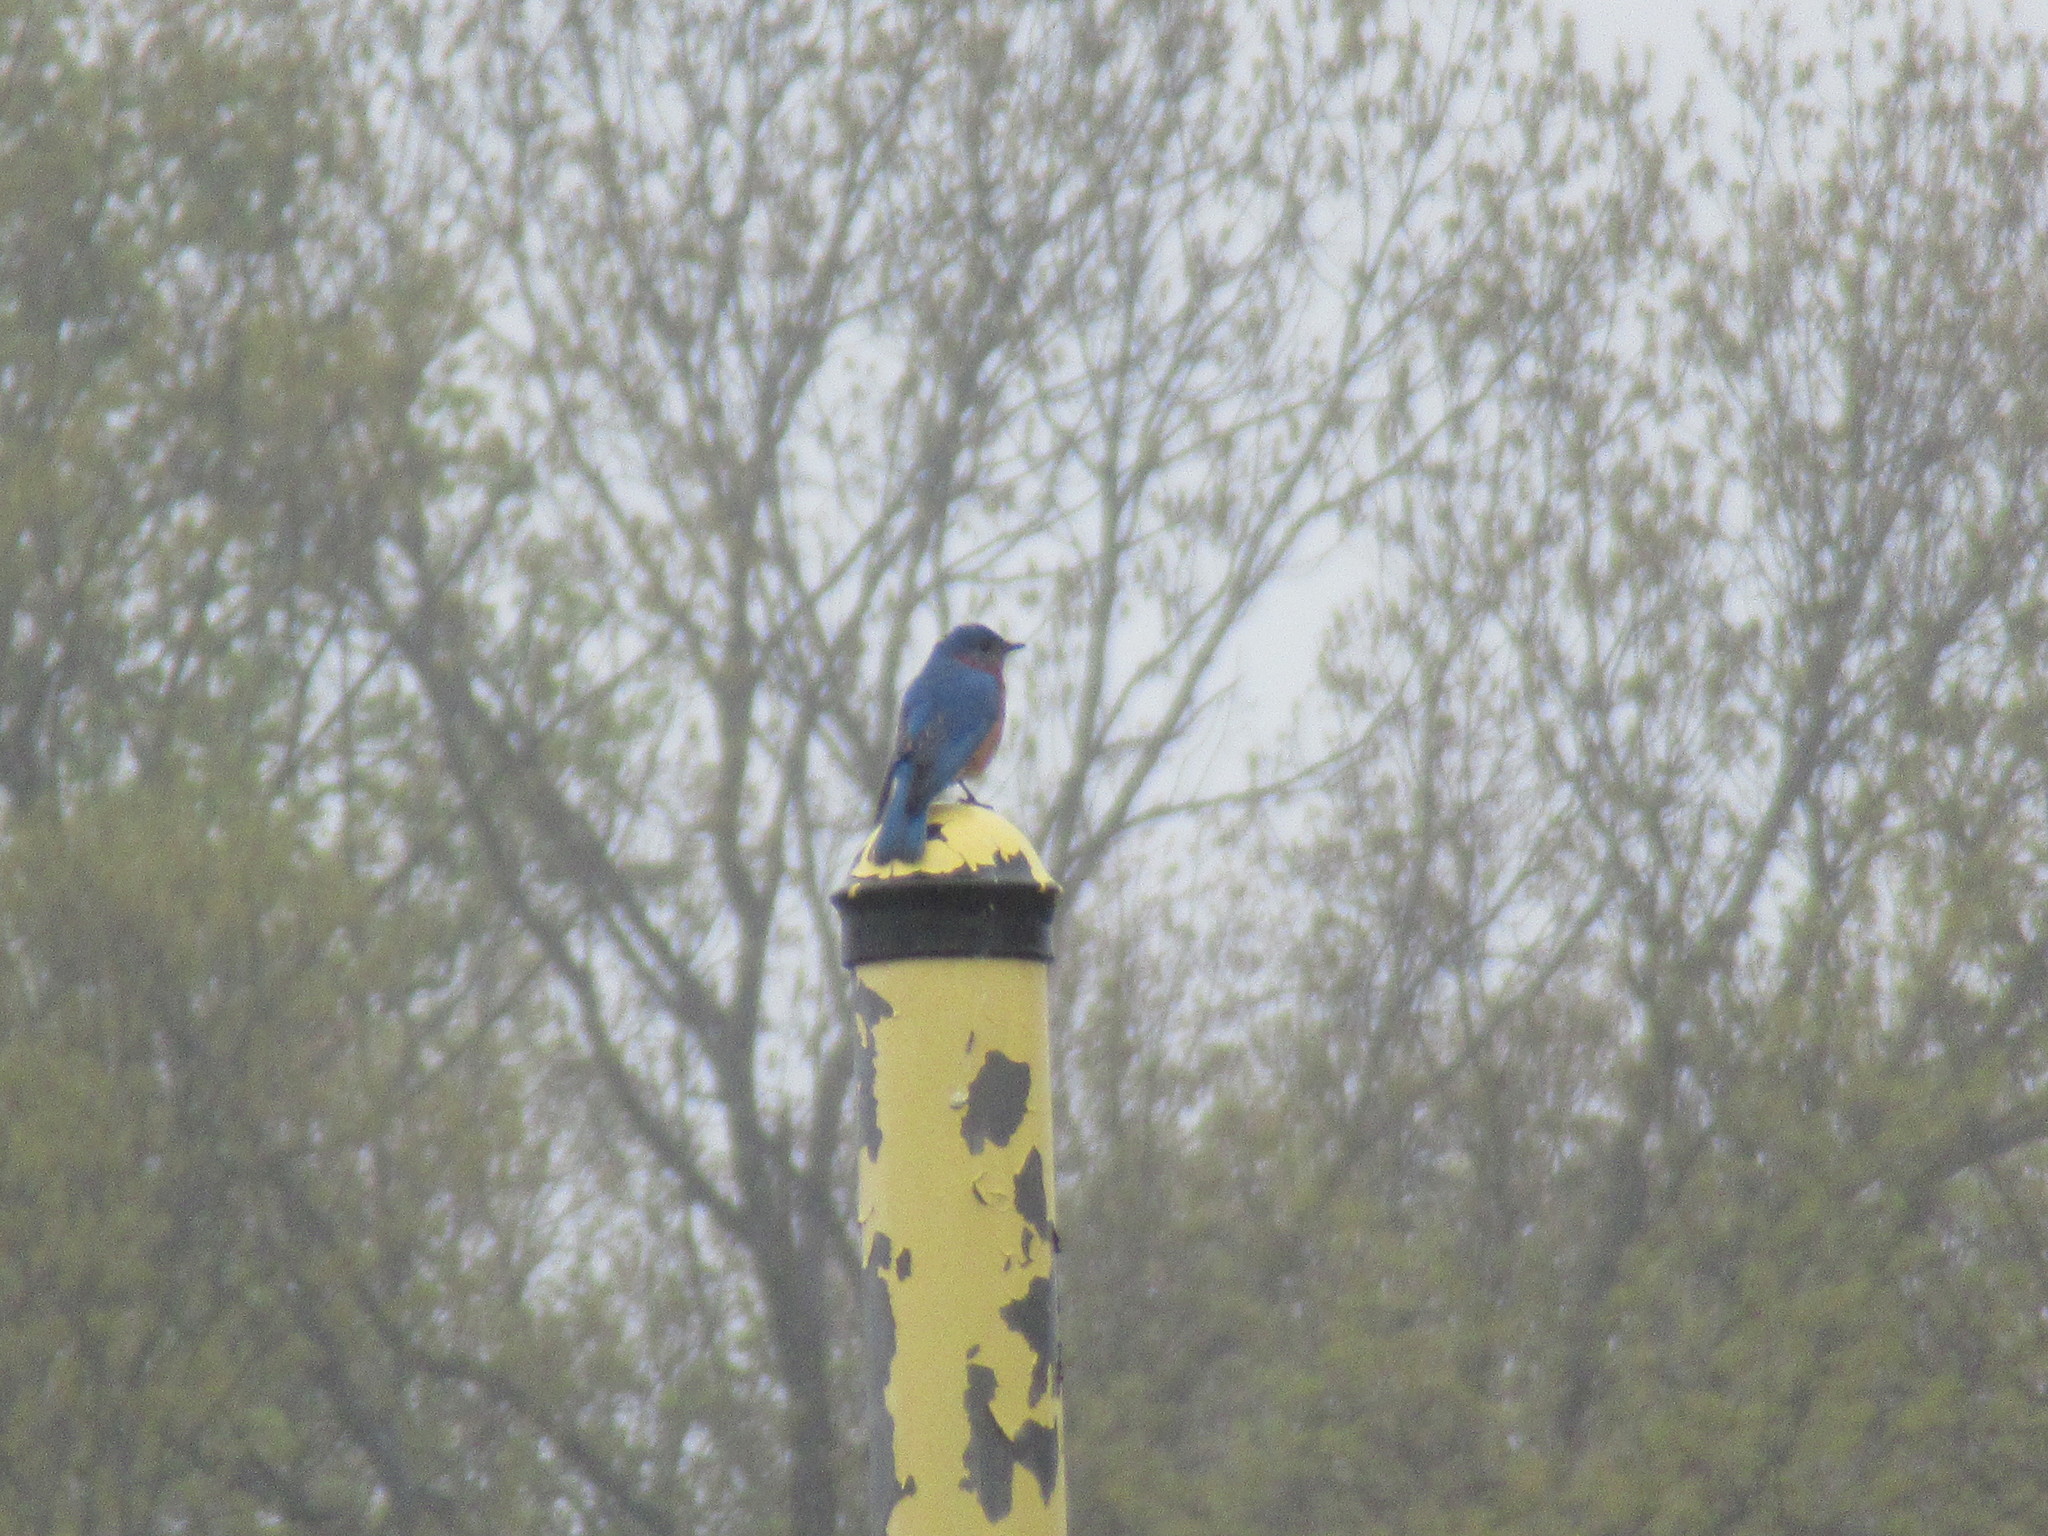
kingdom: Animalia
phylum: Chordata
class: Aves
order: Passeriformes
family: Turdidae
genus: Sialia
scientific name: Sialia sialis
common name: Eastern bluebird
